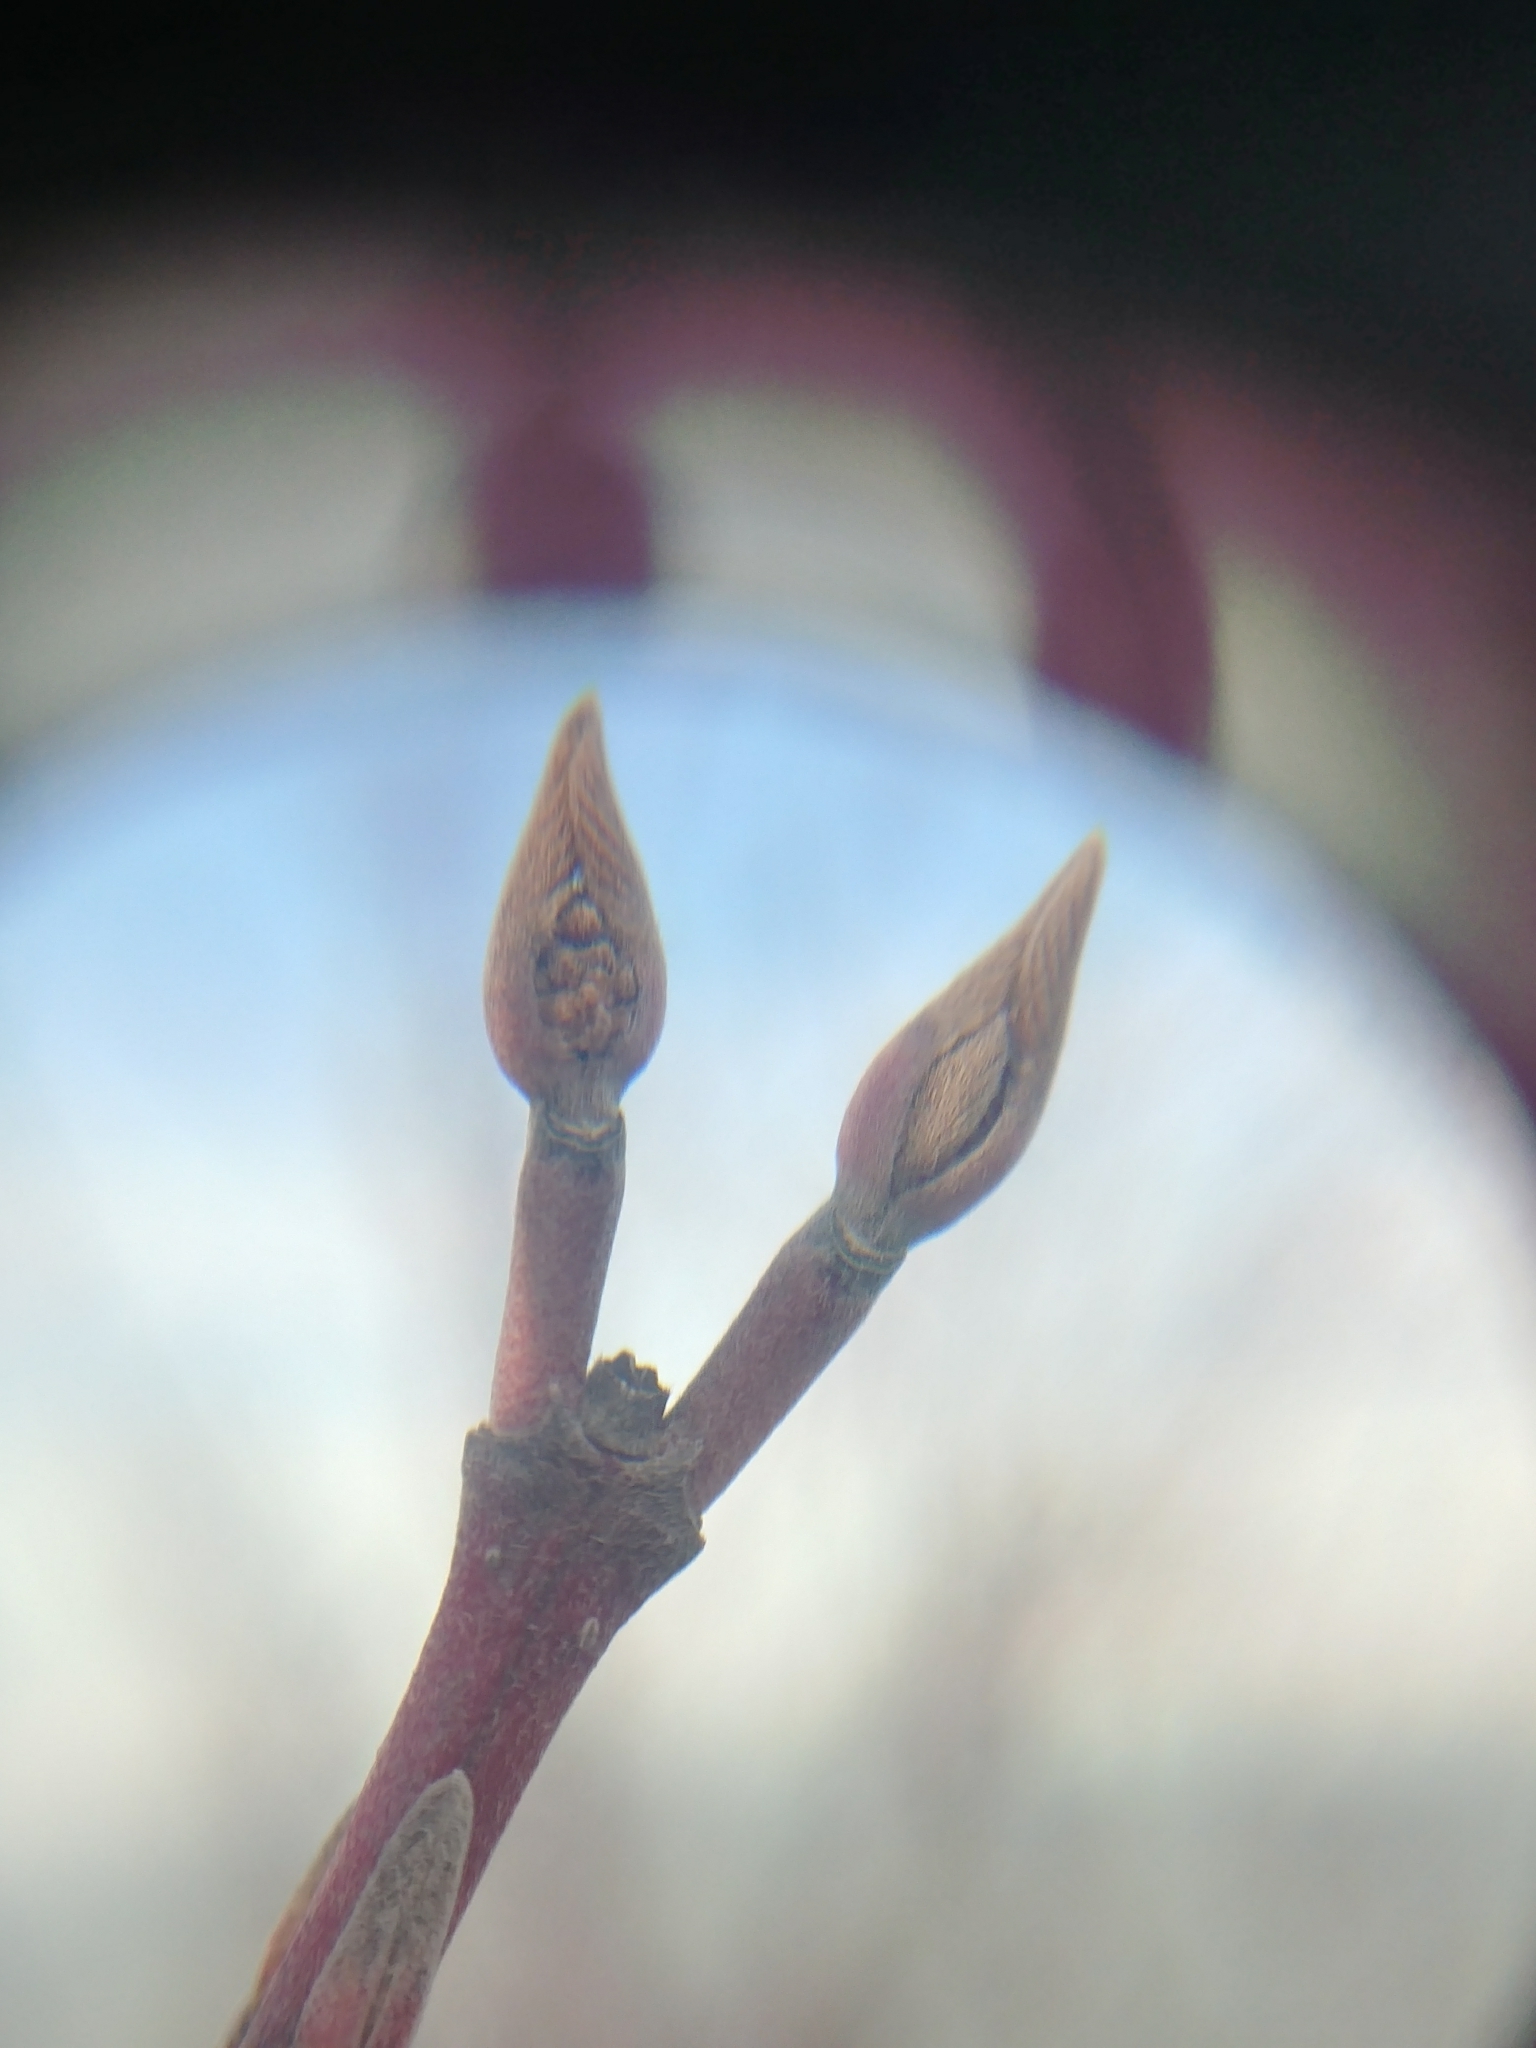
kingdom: Plantae
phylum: Tracheophyta
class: Magnoliopsida
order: Cornales
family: Cornaceae
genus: Cornus
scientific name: Cornus sericea
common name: Red-osier dogwood
